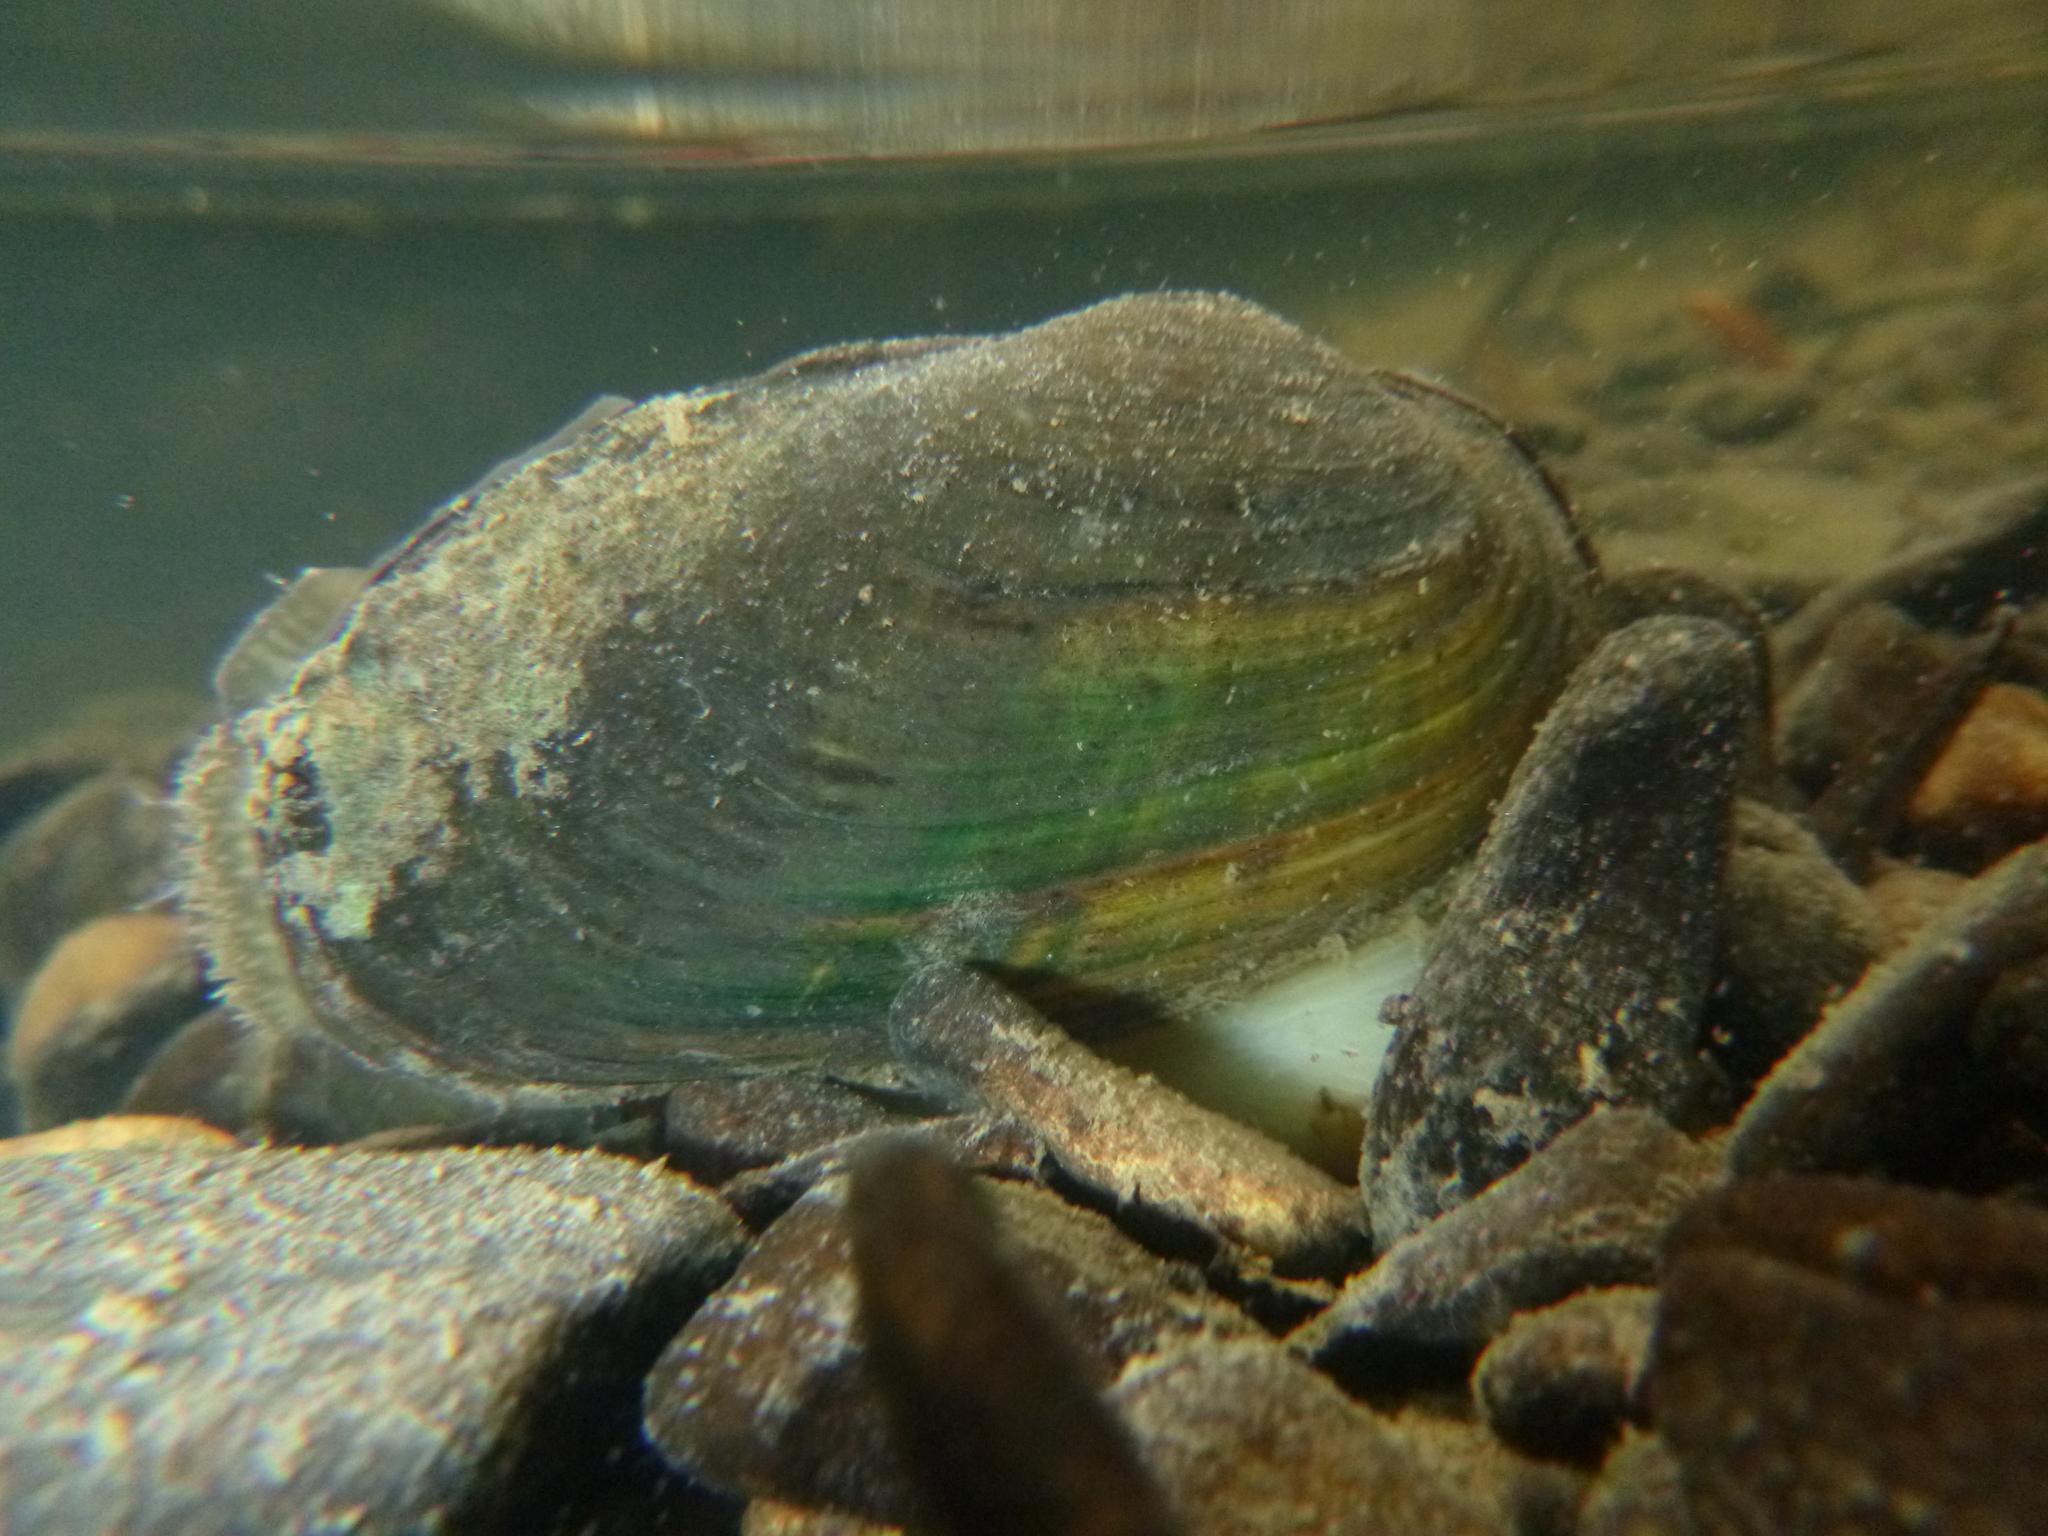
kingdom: Animalia
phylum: Mollusca
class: Bivalvia
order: Unionida
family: Unionidae
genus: Unio
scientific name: Unio crassus
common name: Thick shelled river mussel
